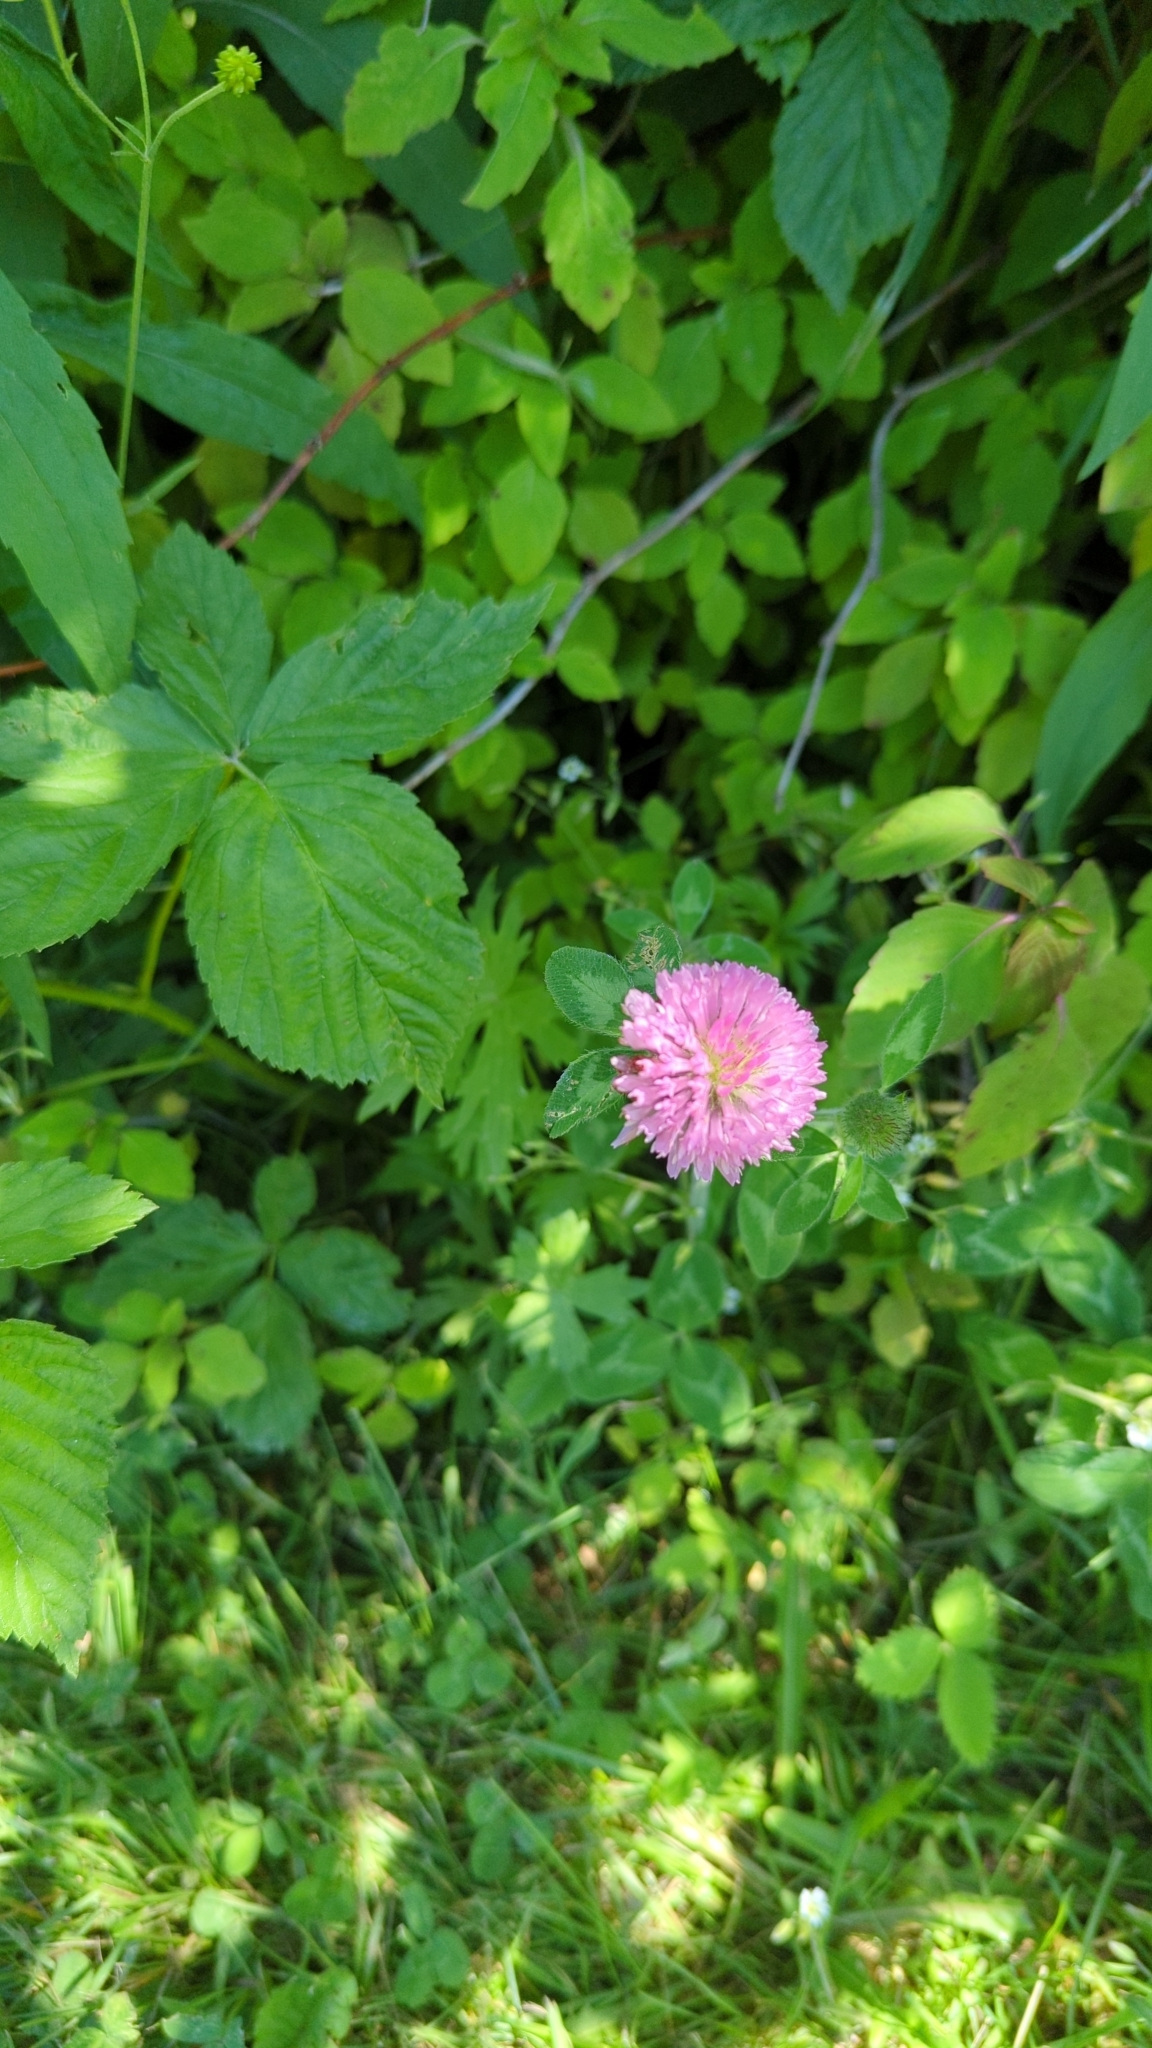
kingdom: Plantae
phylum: Tracheophyta
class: Magnoliopsida
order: Fabales
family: Fabaceae
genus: Trifolium
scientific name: Trifolium pratense
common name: Red clover
